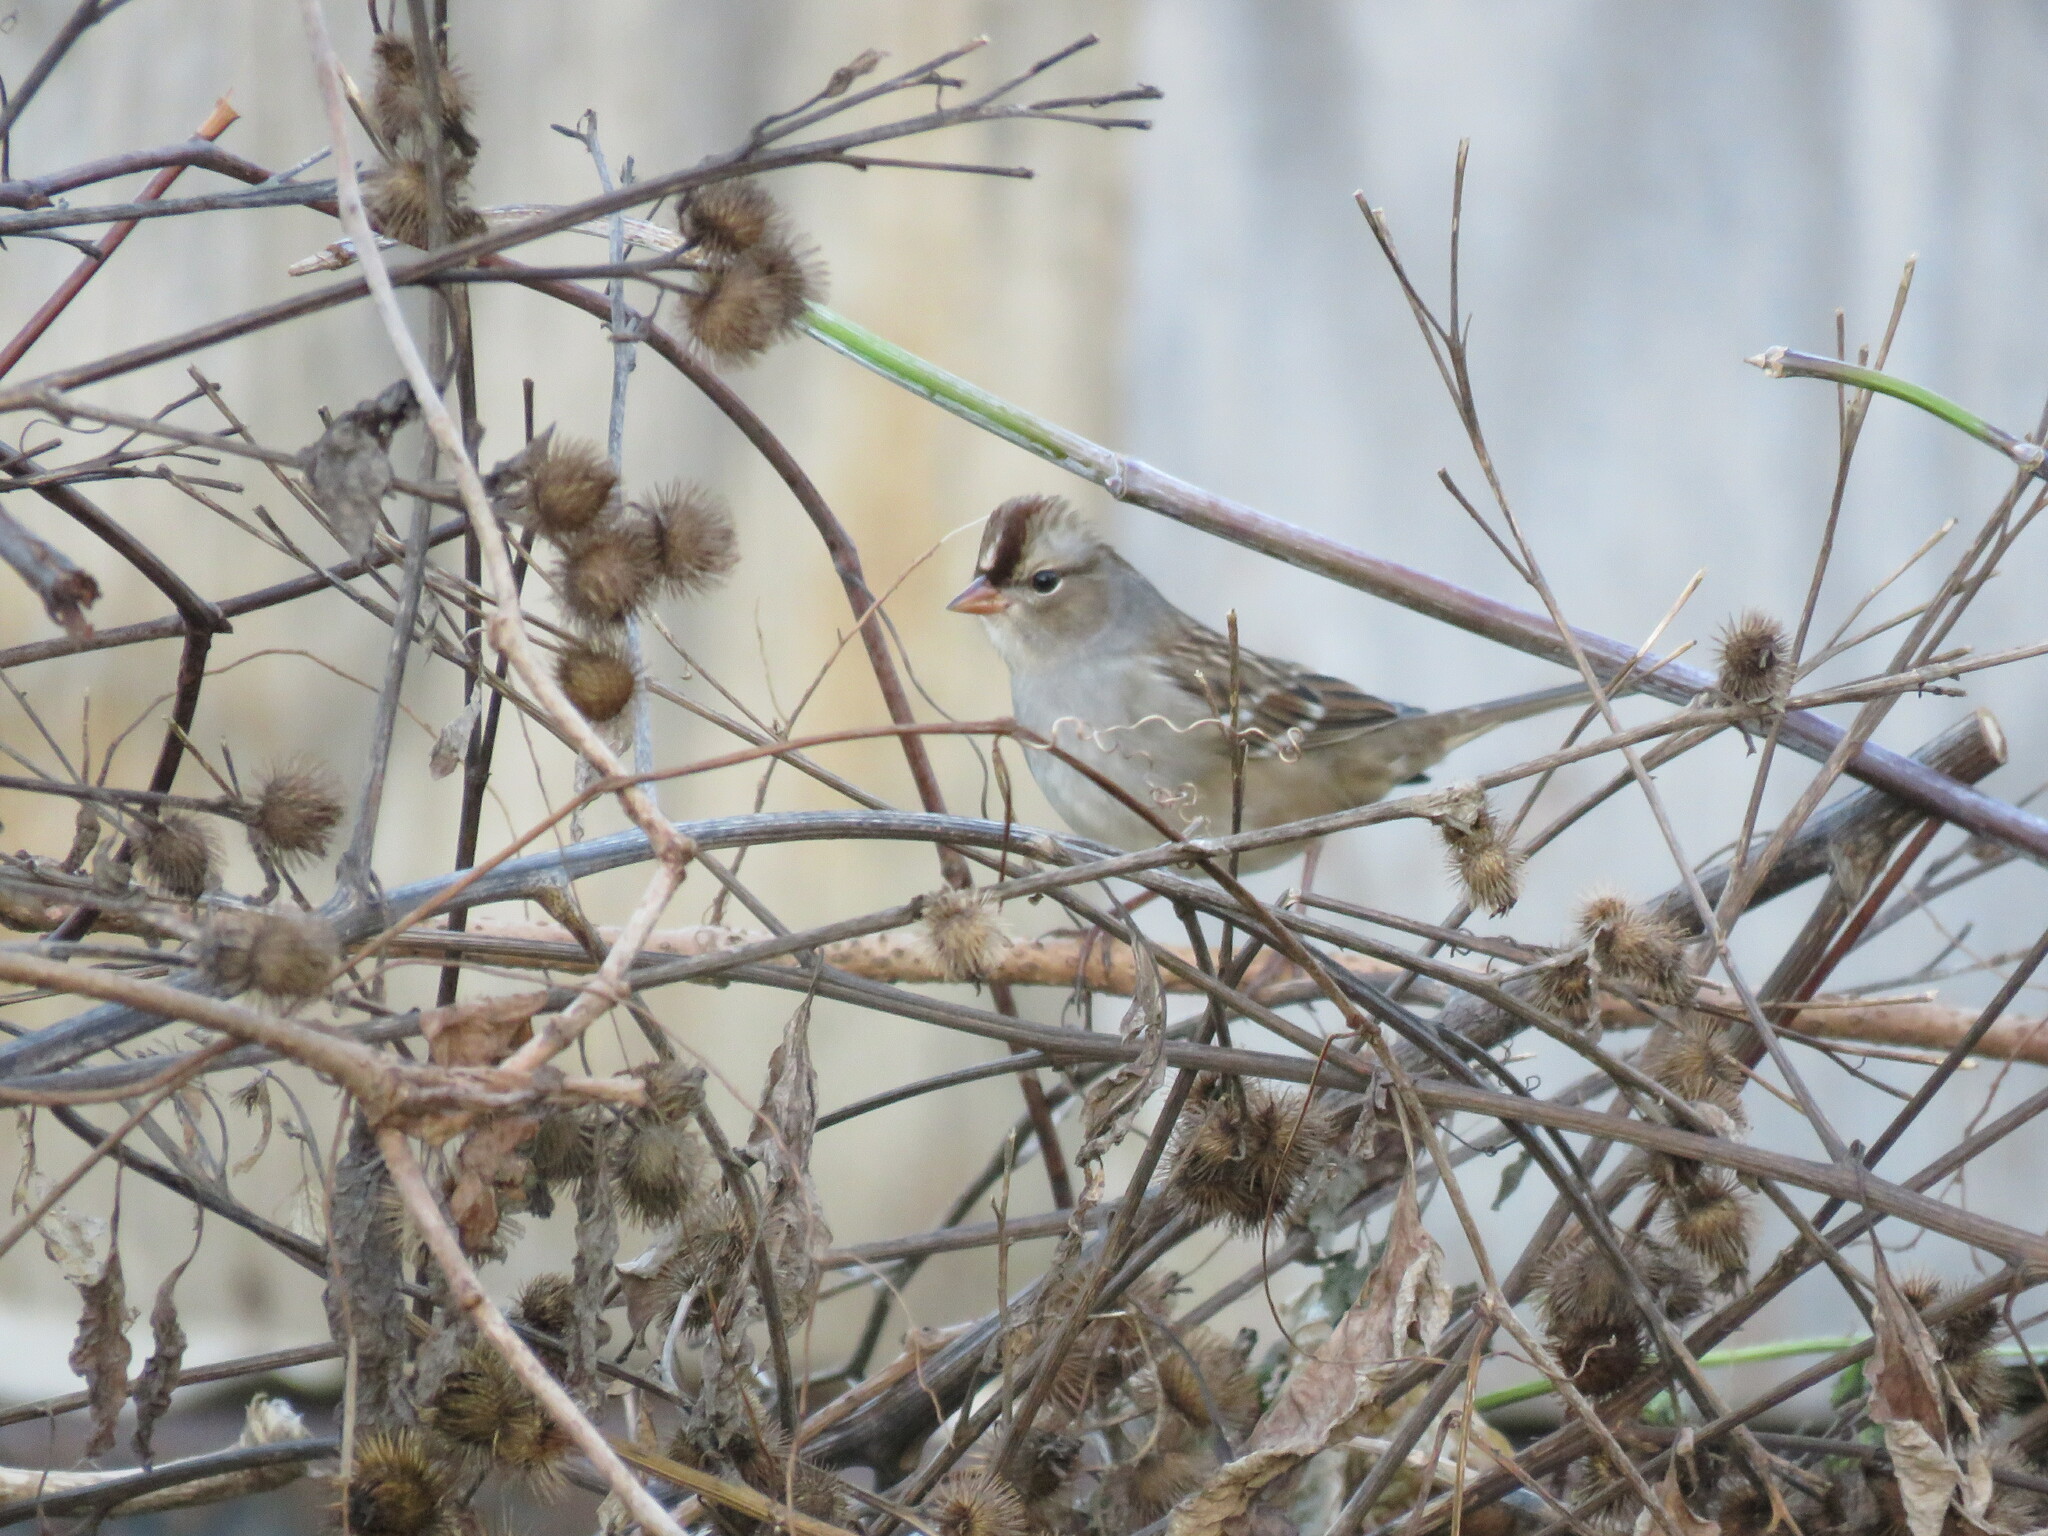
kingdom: Animalia
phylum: Chordata
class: Aves
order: Passeriformes
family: Passerellidae
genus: Zonotrichia
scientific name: Zonotrichia leucophrys
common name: White-crowned sparrow
